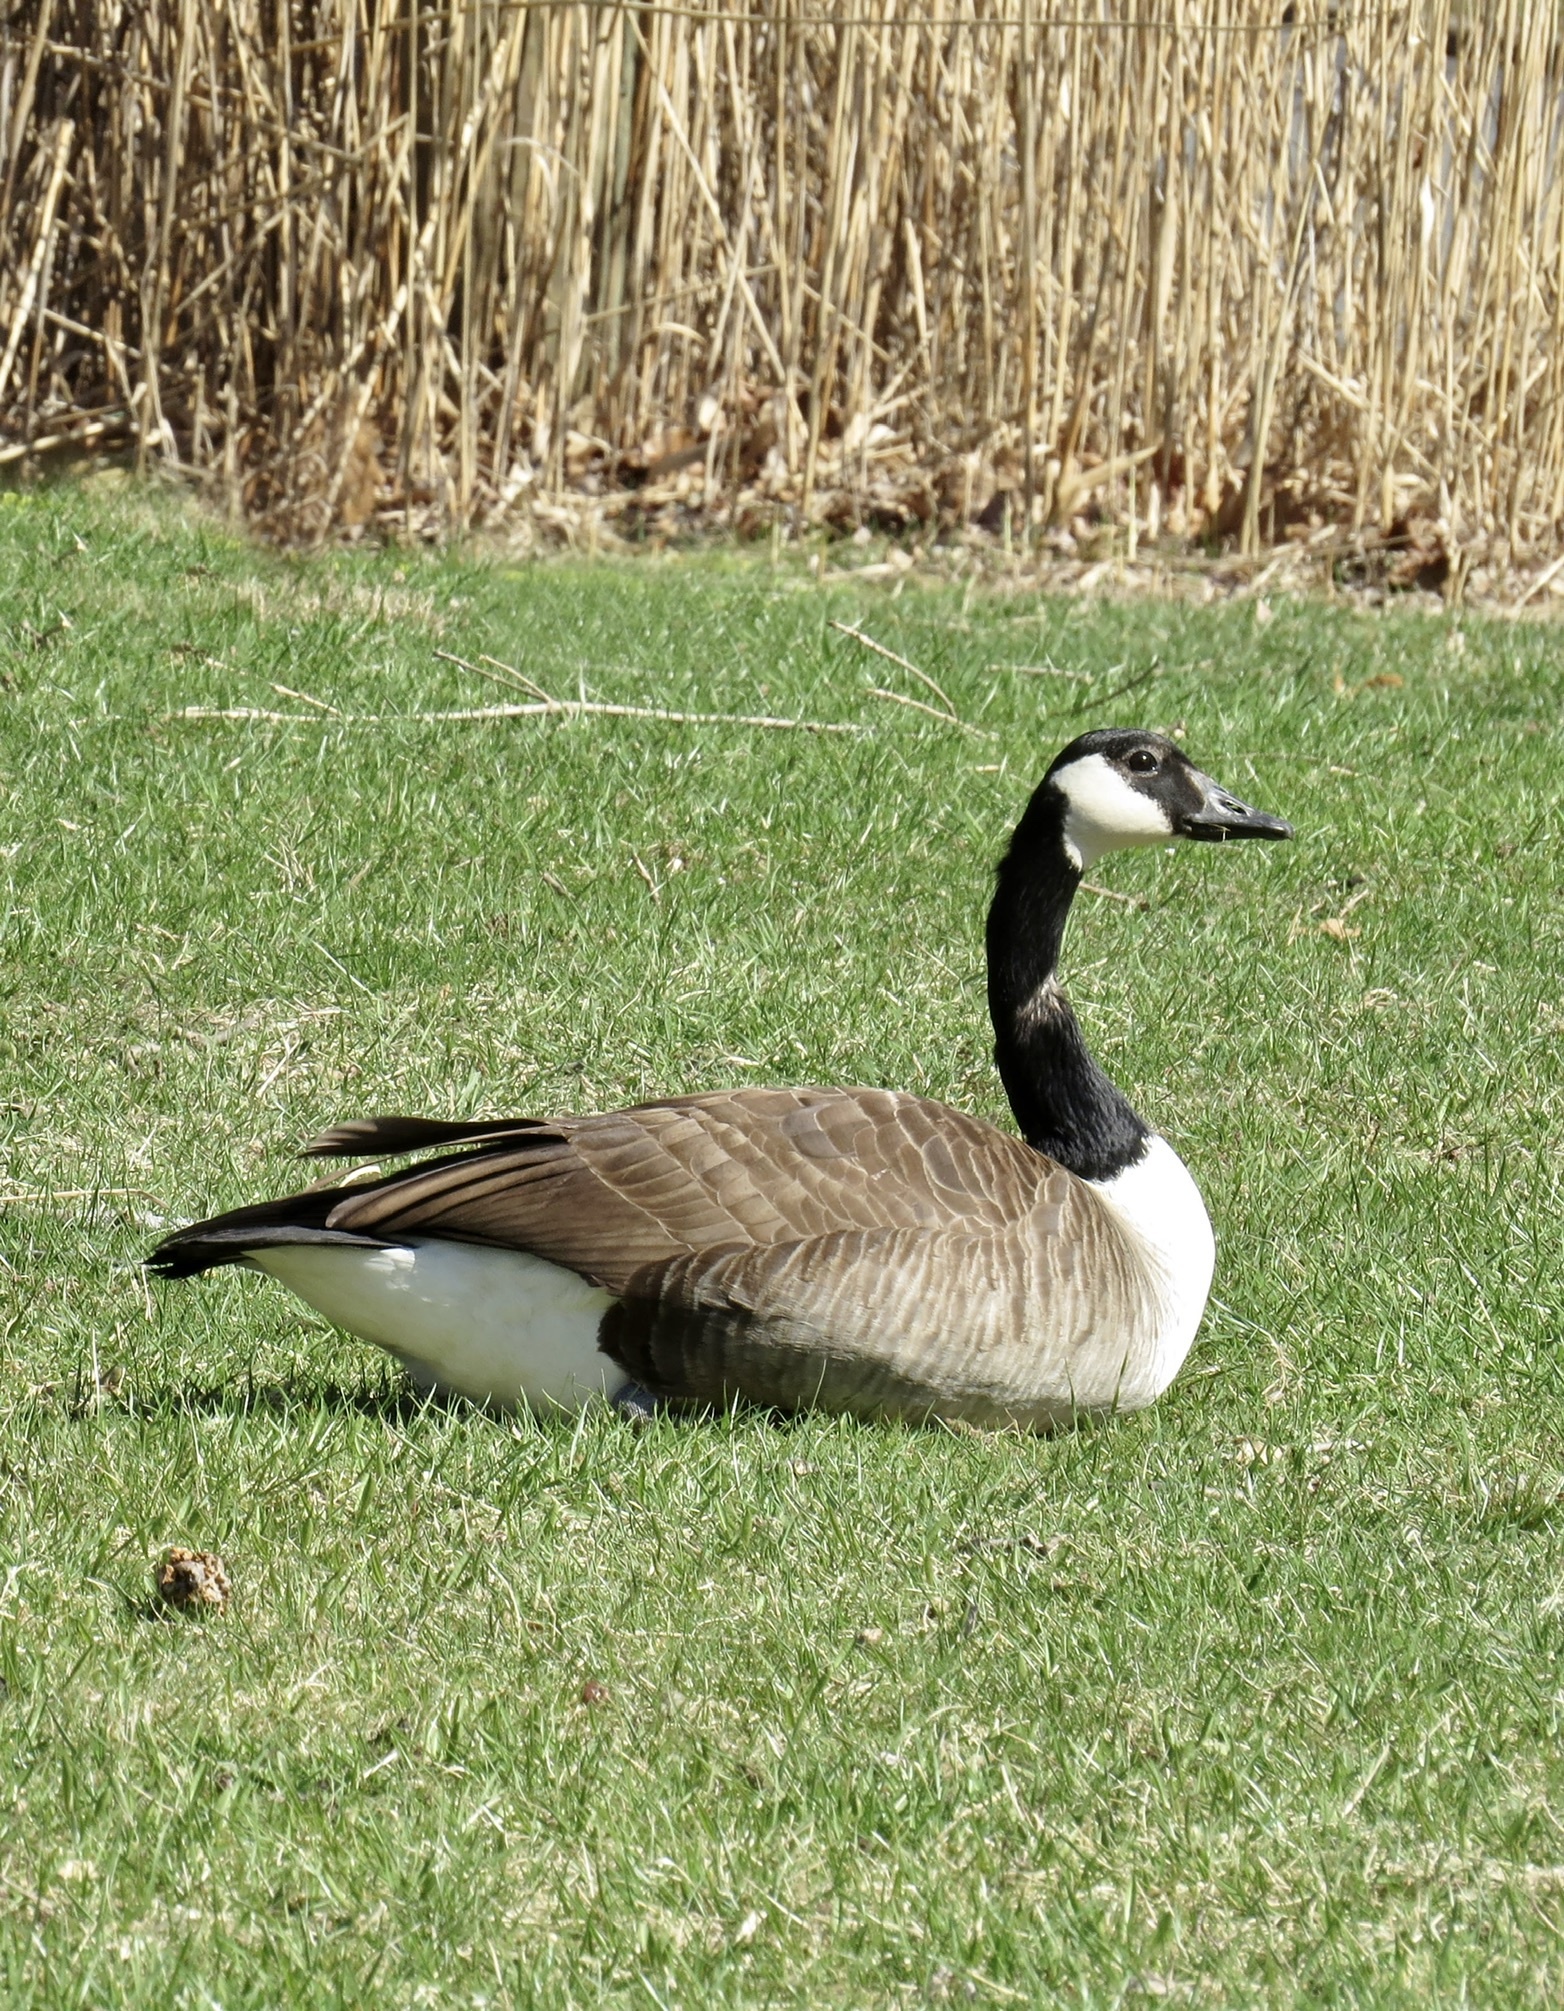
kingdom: Animalia
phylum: Chordata
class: Aves
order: Anseriformes
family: Anatidae
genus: Branta
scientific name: Branta canadensis
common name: Canada goose
